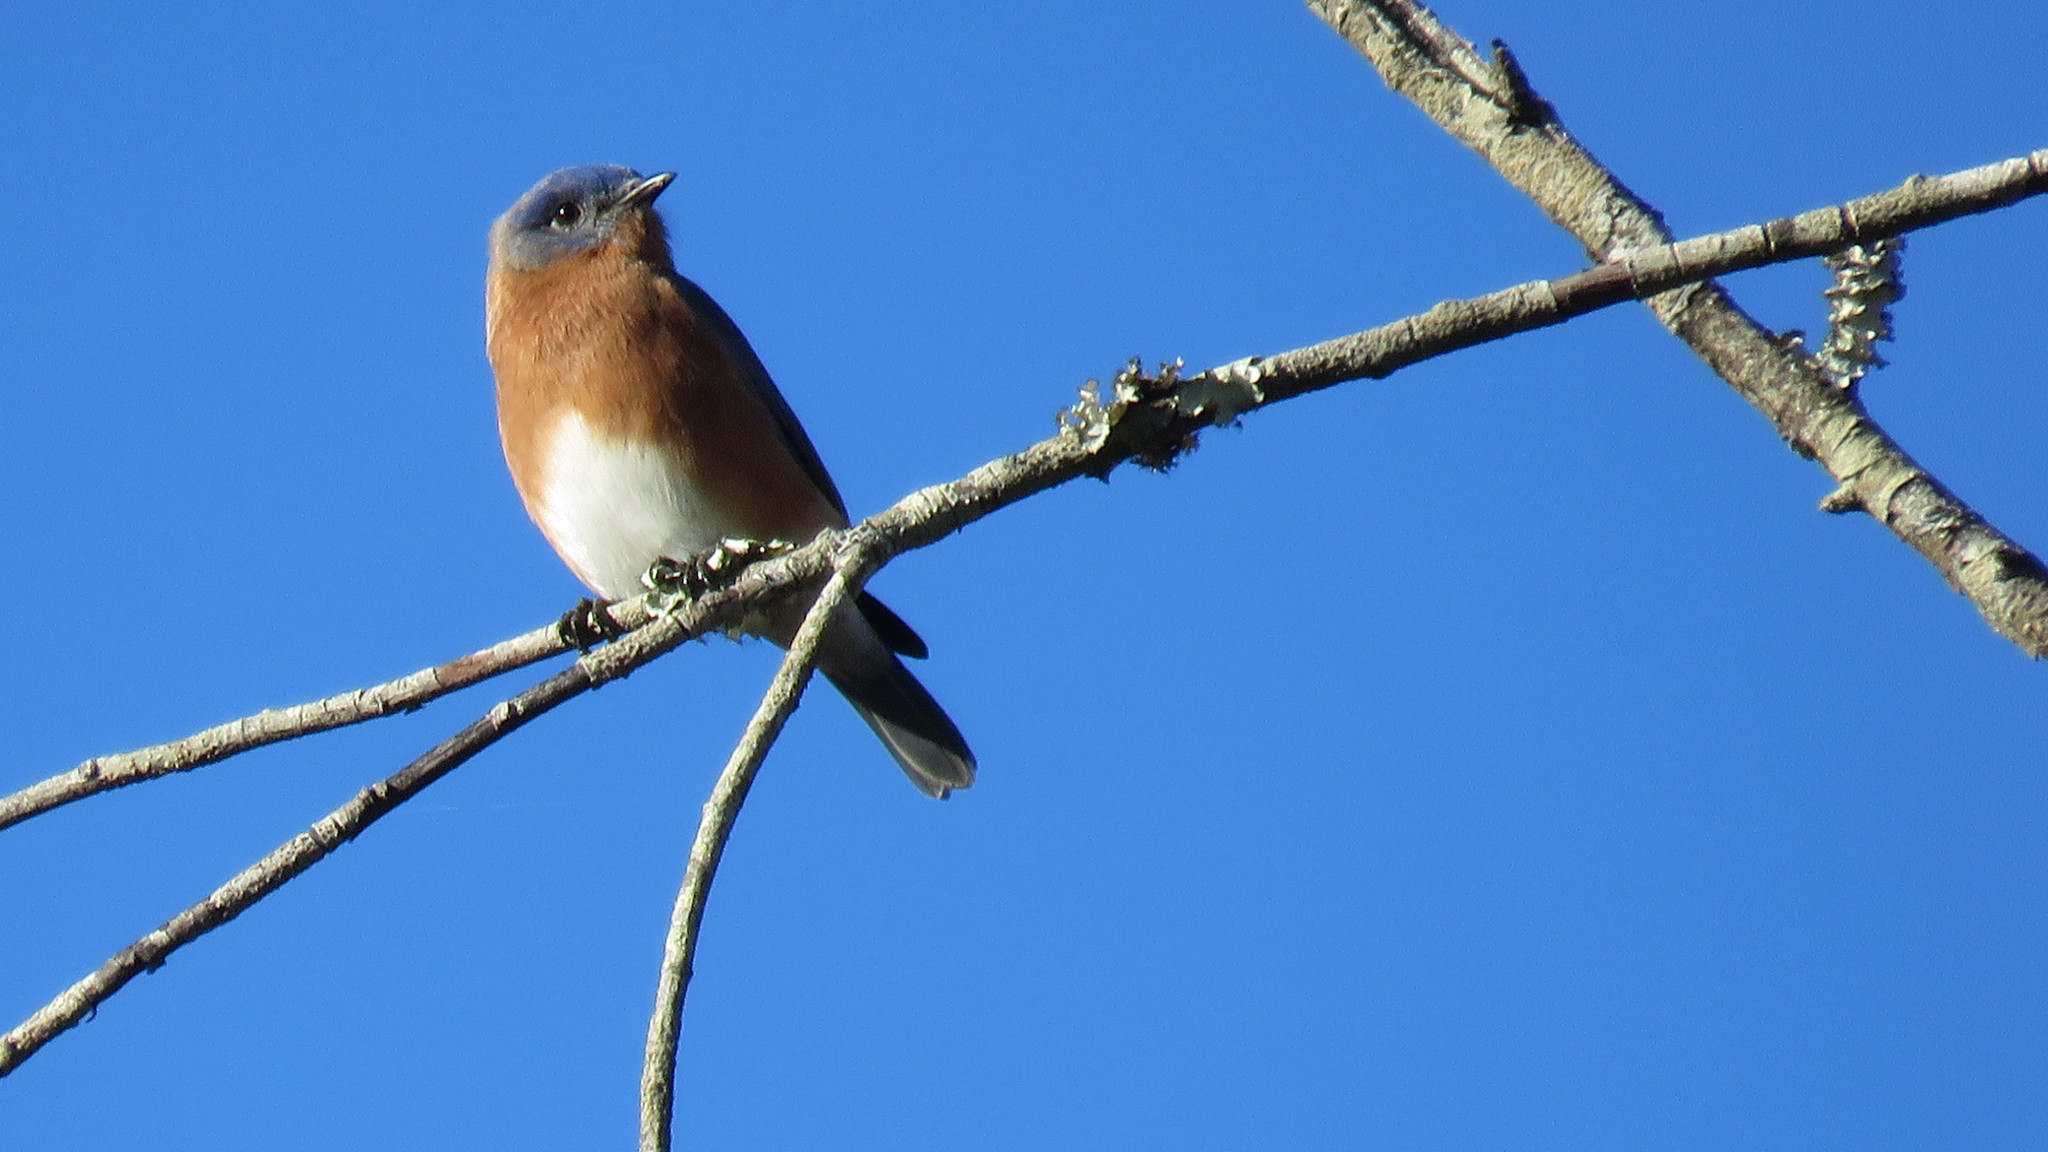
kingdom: Animalia
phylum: Chordata
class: Aves
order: Passeriformes
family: Turdidae
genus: Sialia
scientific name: Sialia sialis
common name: Eastern bluebird
